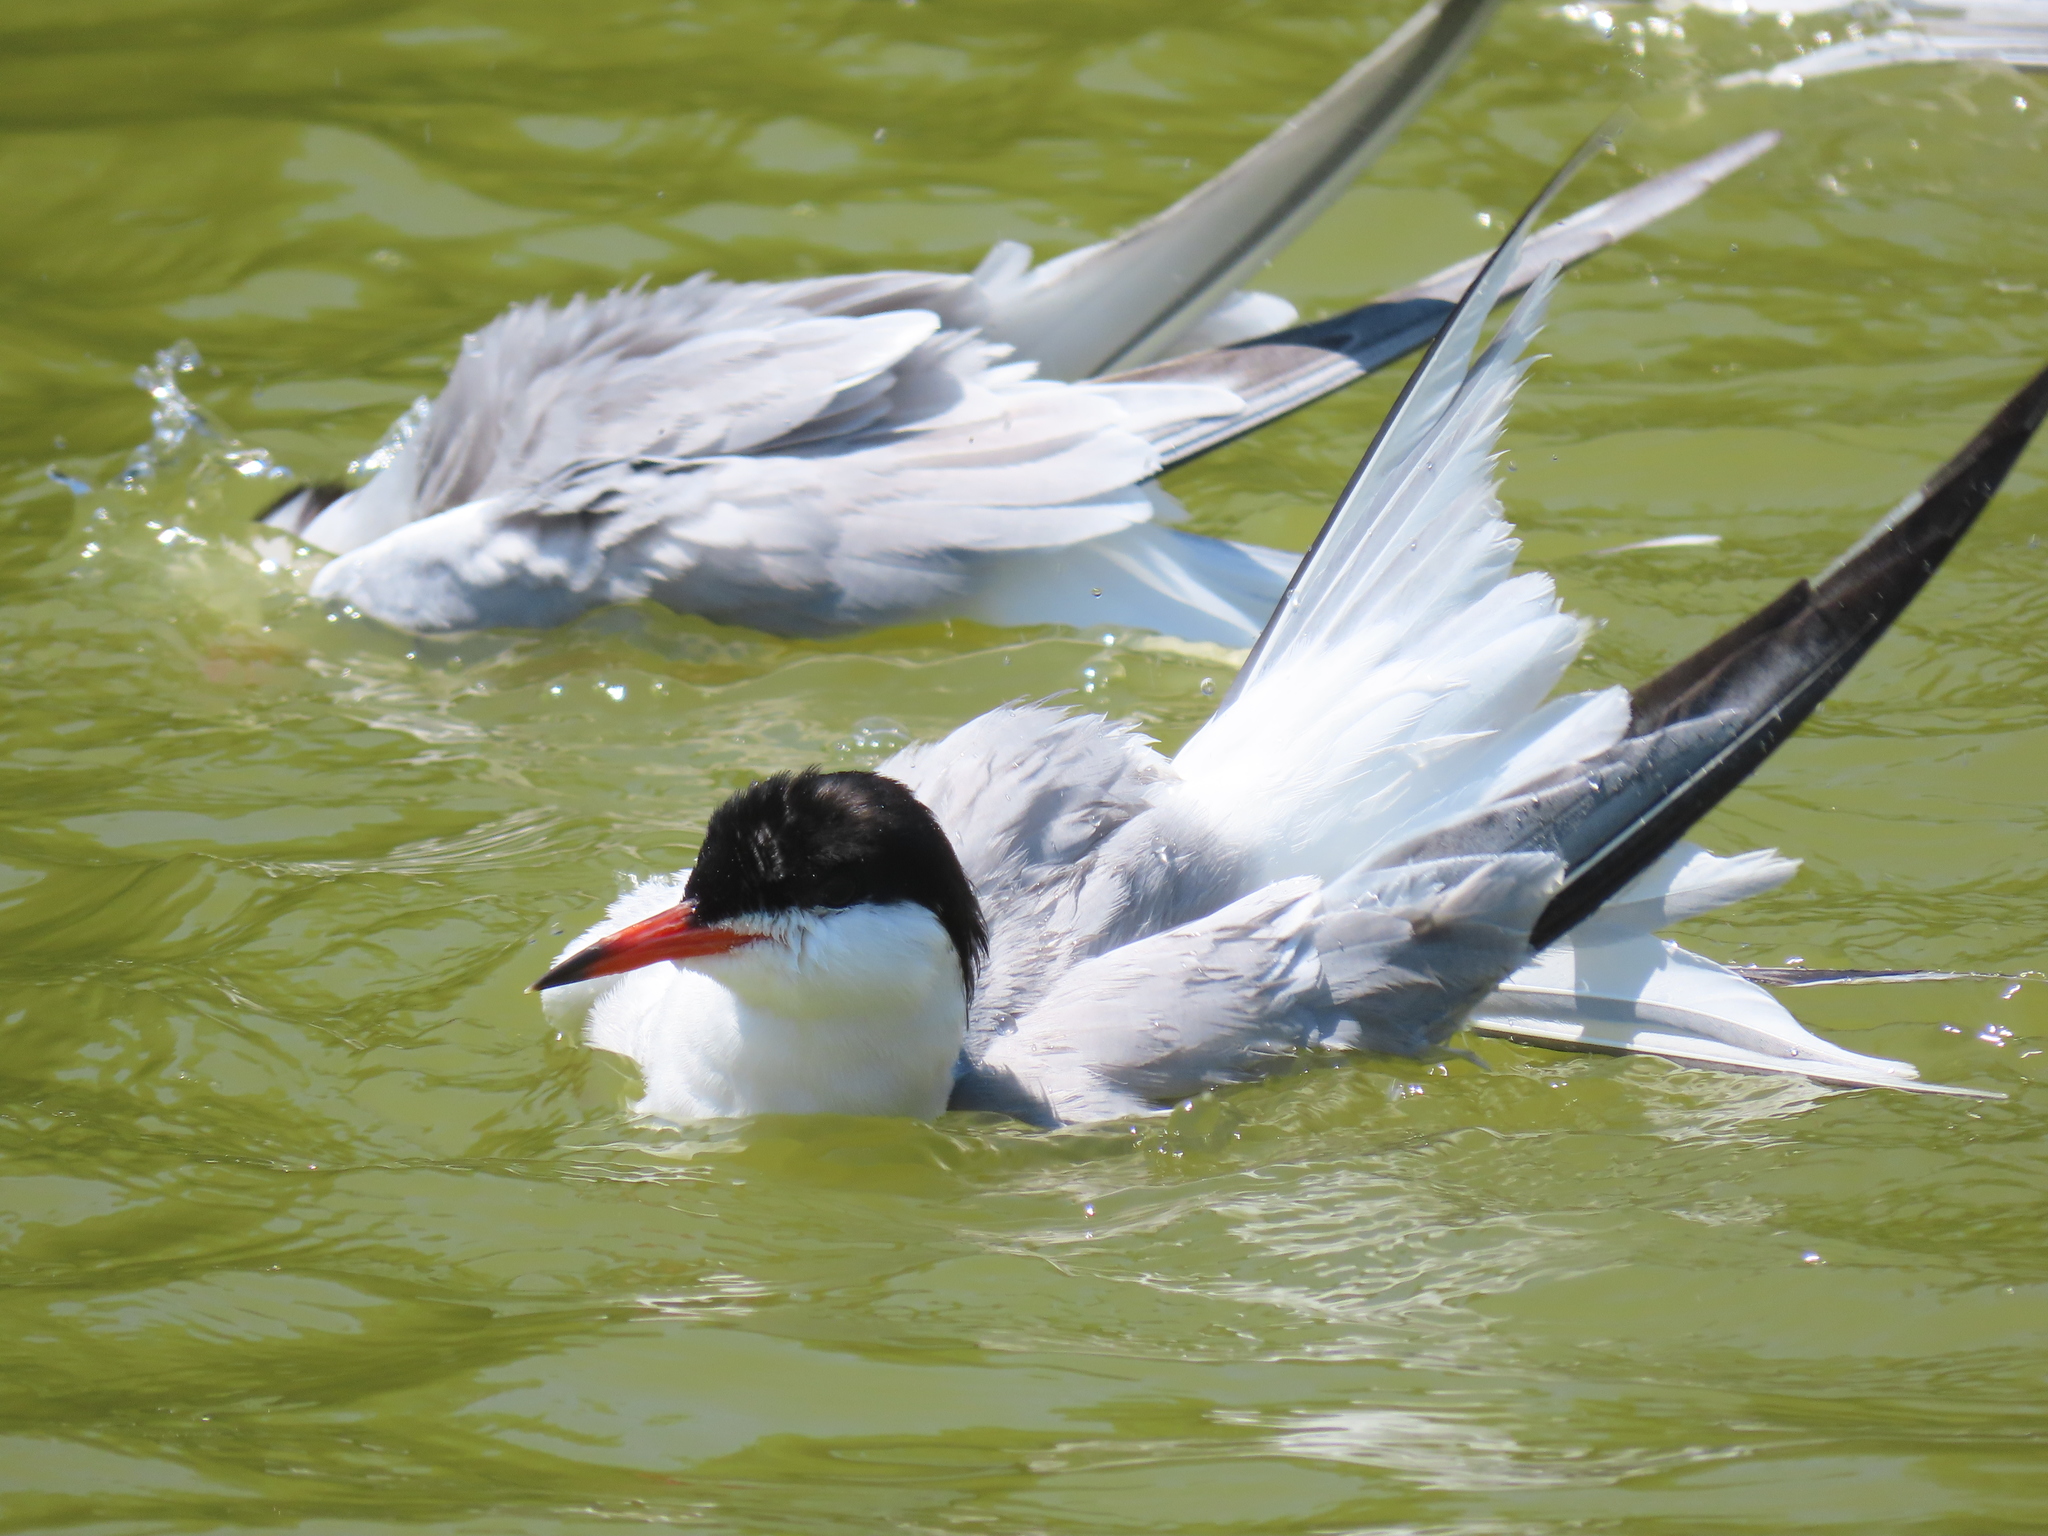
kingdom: Animalia
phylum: Chordata
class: Aves
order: Charadriiformes
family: Laridae
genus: Sterna
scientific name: Sterna hirundo
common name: Common tern
